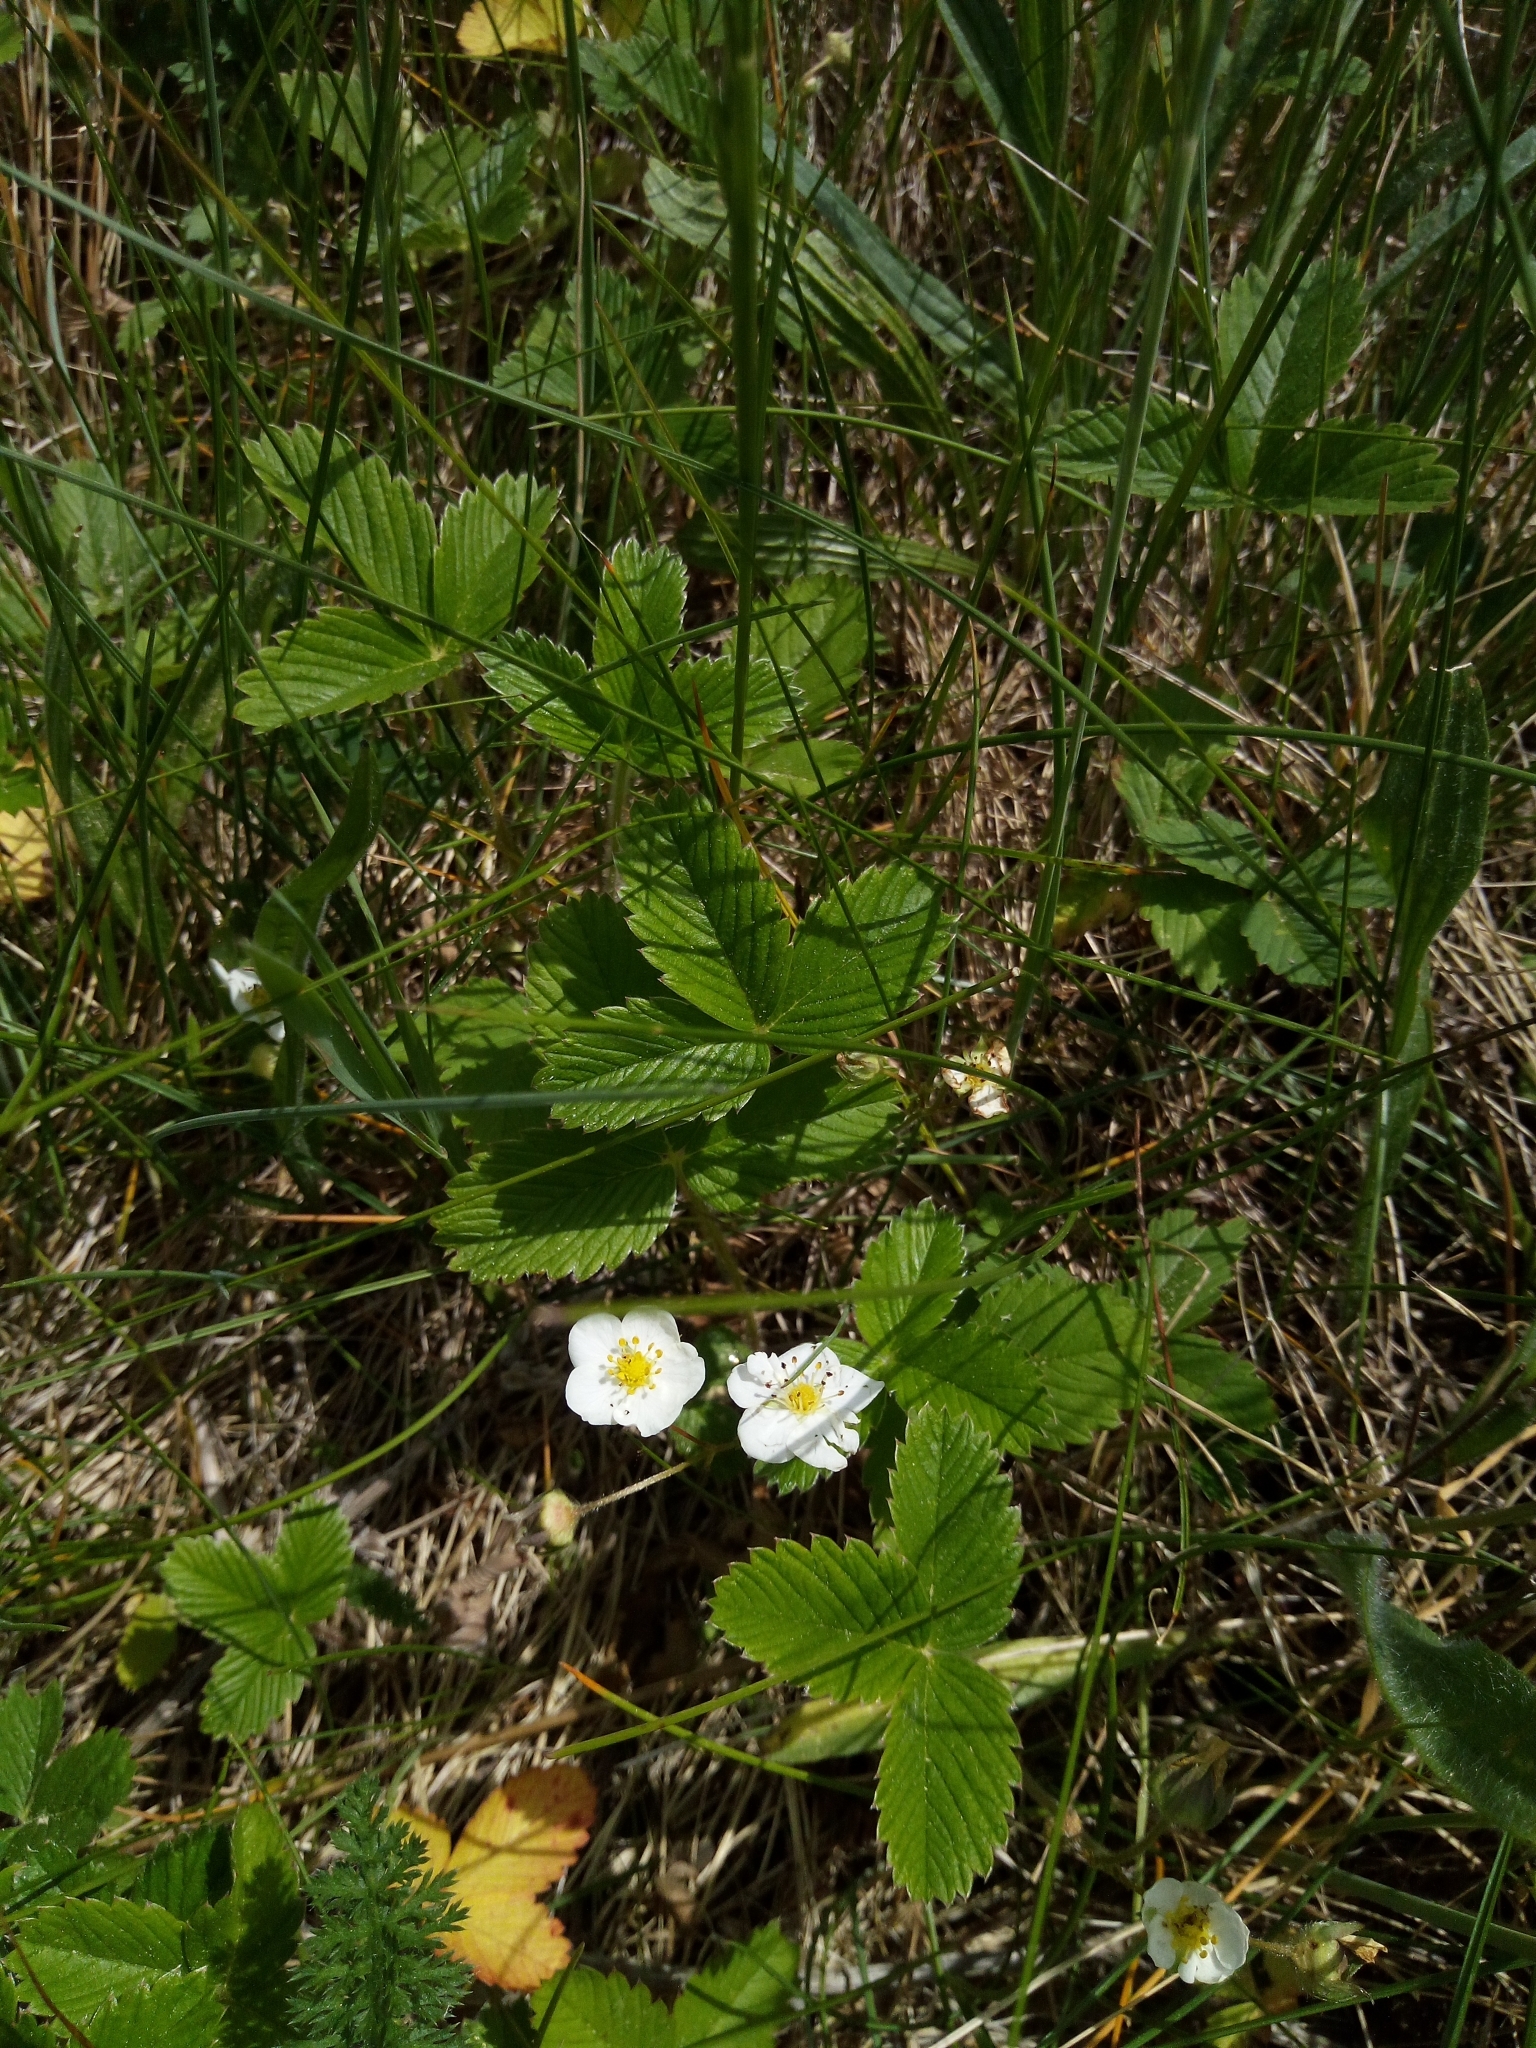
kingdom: Plantae
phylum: Tracheophyta
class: Magnoliopsida
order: Rosales
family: Rosaceae
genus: Fragaria
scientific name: Fragaria viridis
